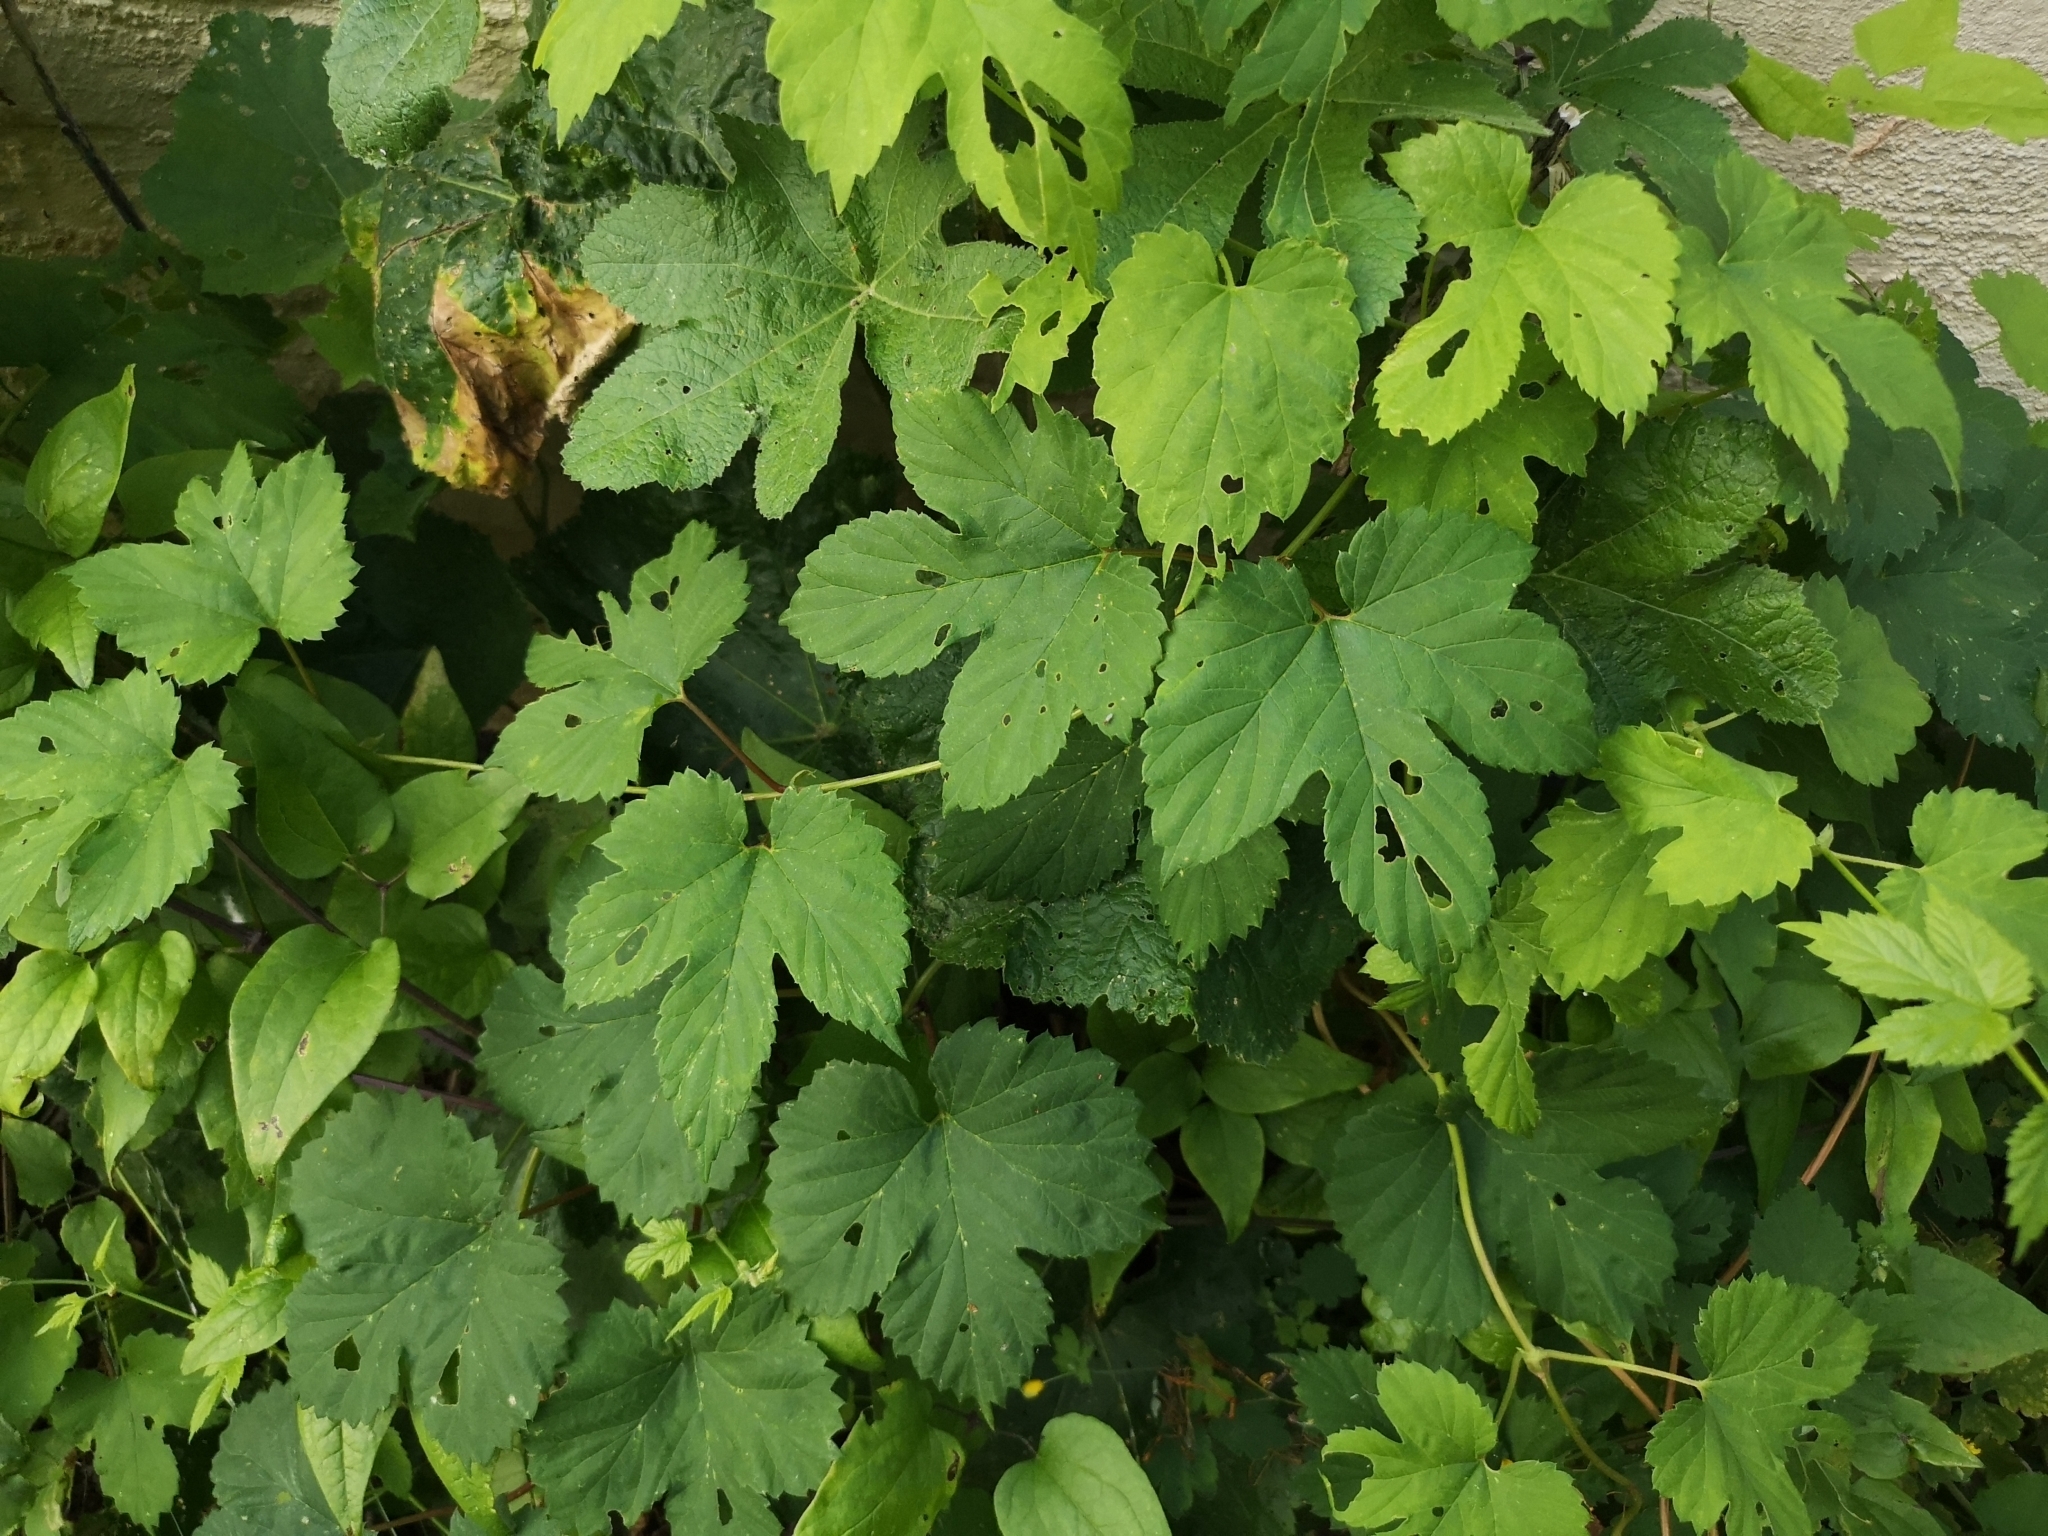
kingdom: Plantae
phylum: Tracheophyta
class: Magnoliopsida
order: Rosales
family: Cannabaceae
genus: Humulus
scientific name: Humulus lupulus
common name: Hop
